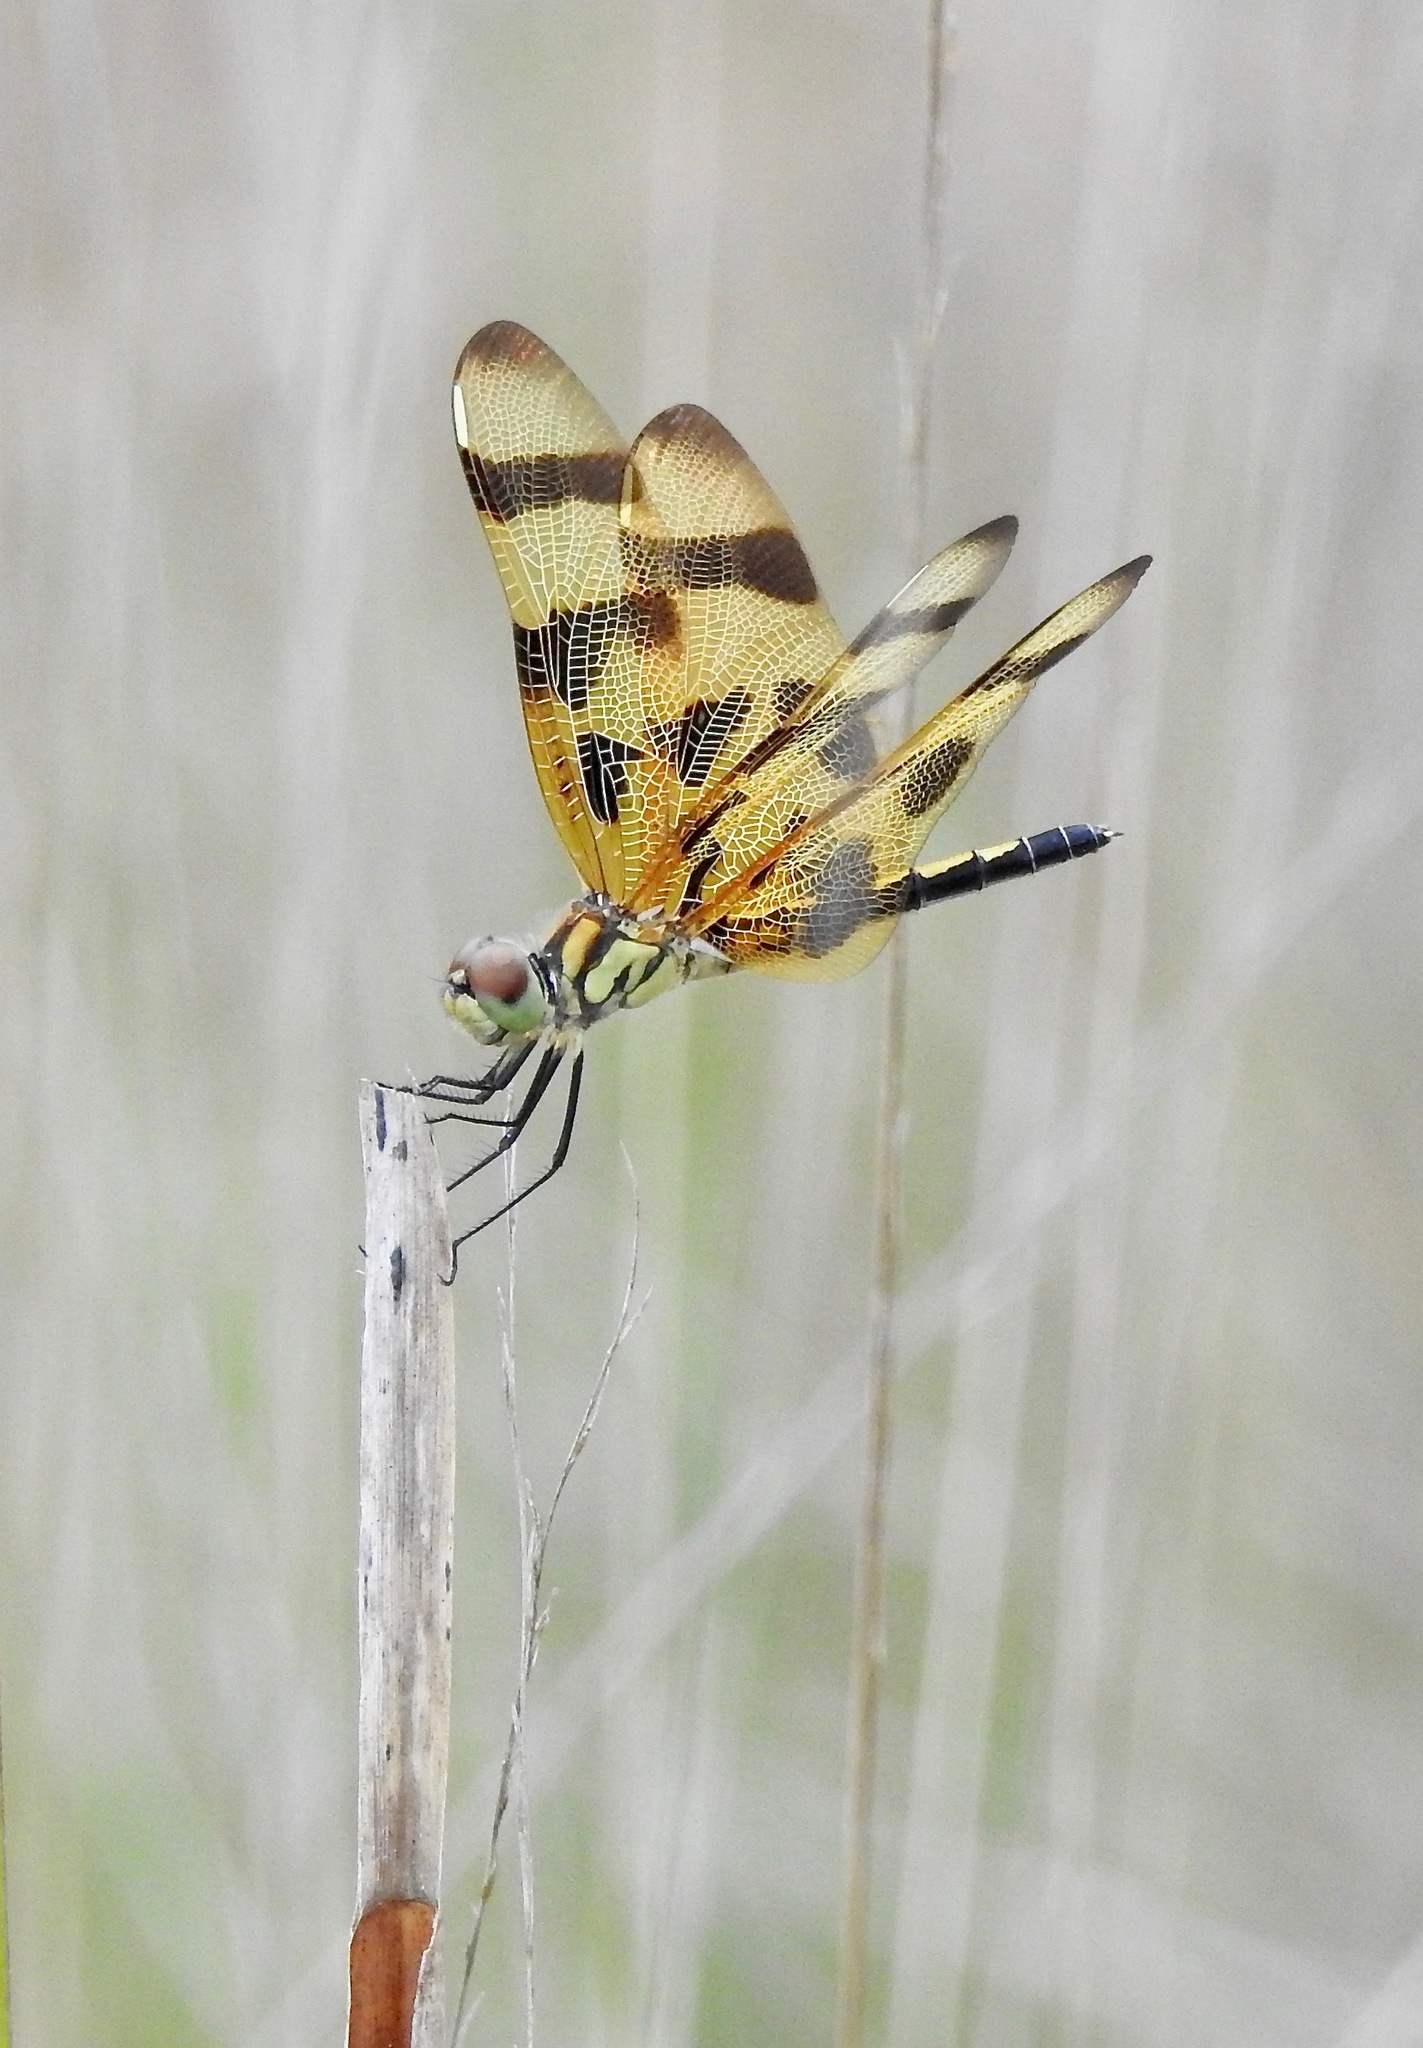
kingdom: Animalia
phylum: Arthropoda
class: Insecta
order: Odonata
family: Libellulidae
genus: Celithemis
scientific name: Celithemis eponina
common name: Halloween pennant
